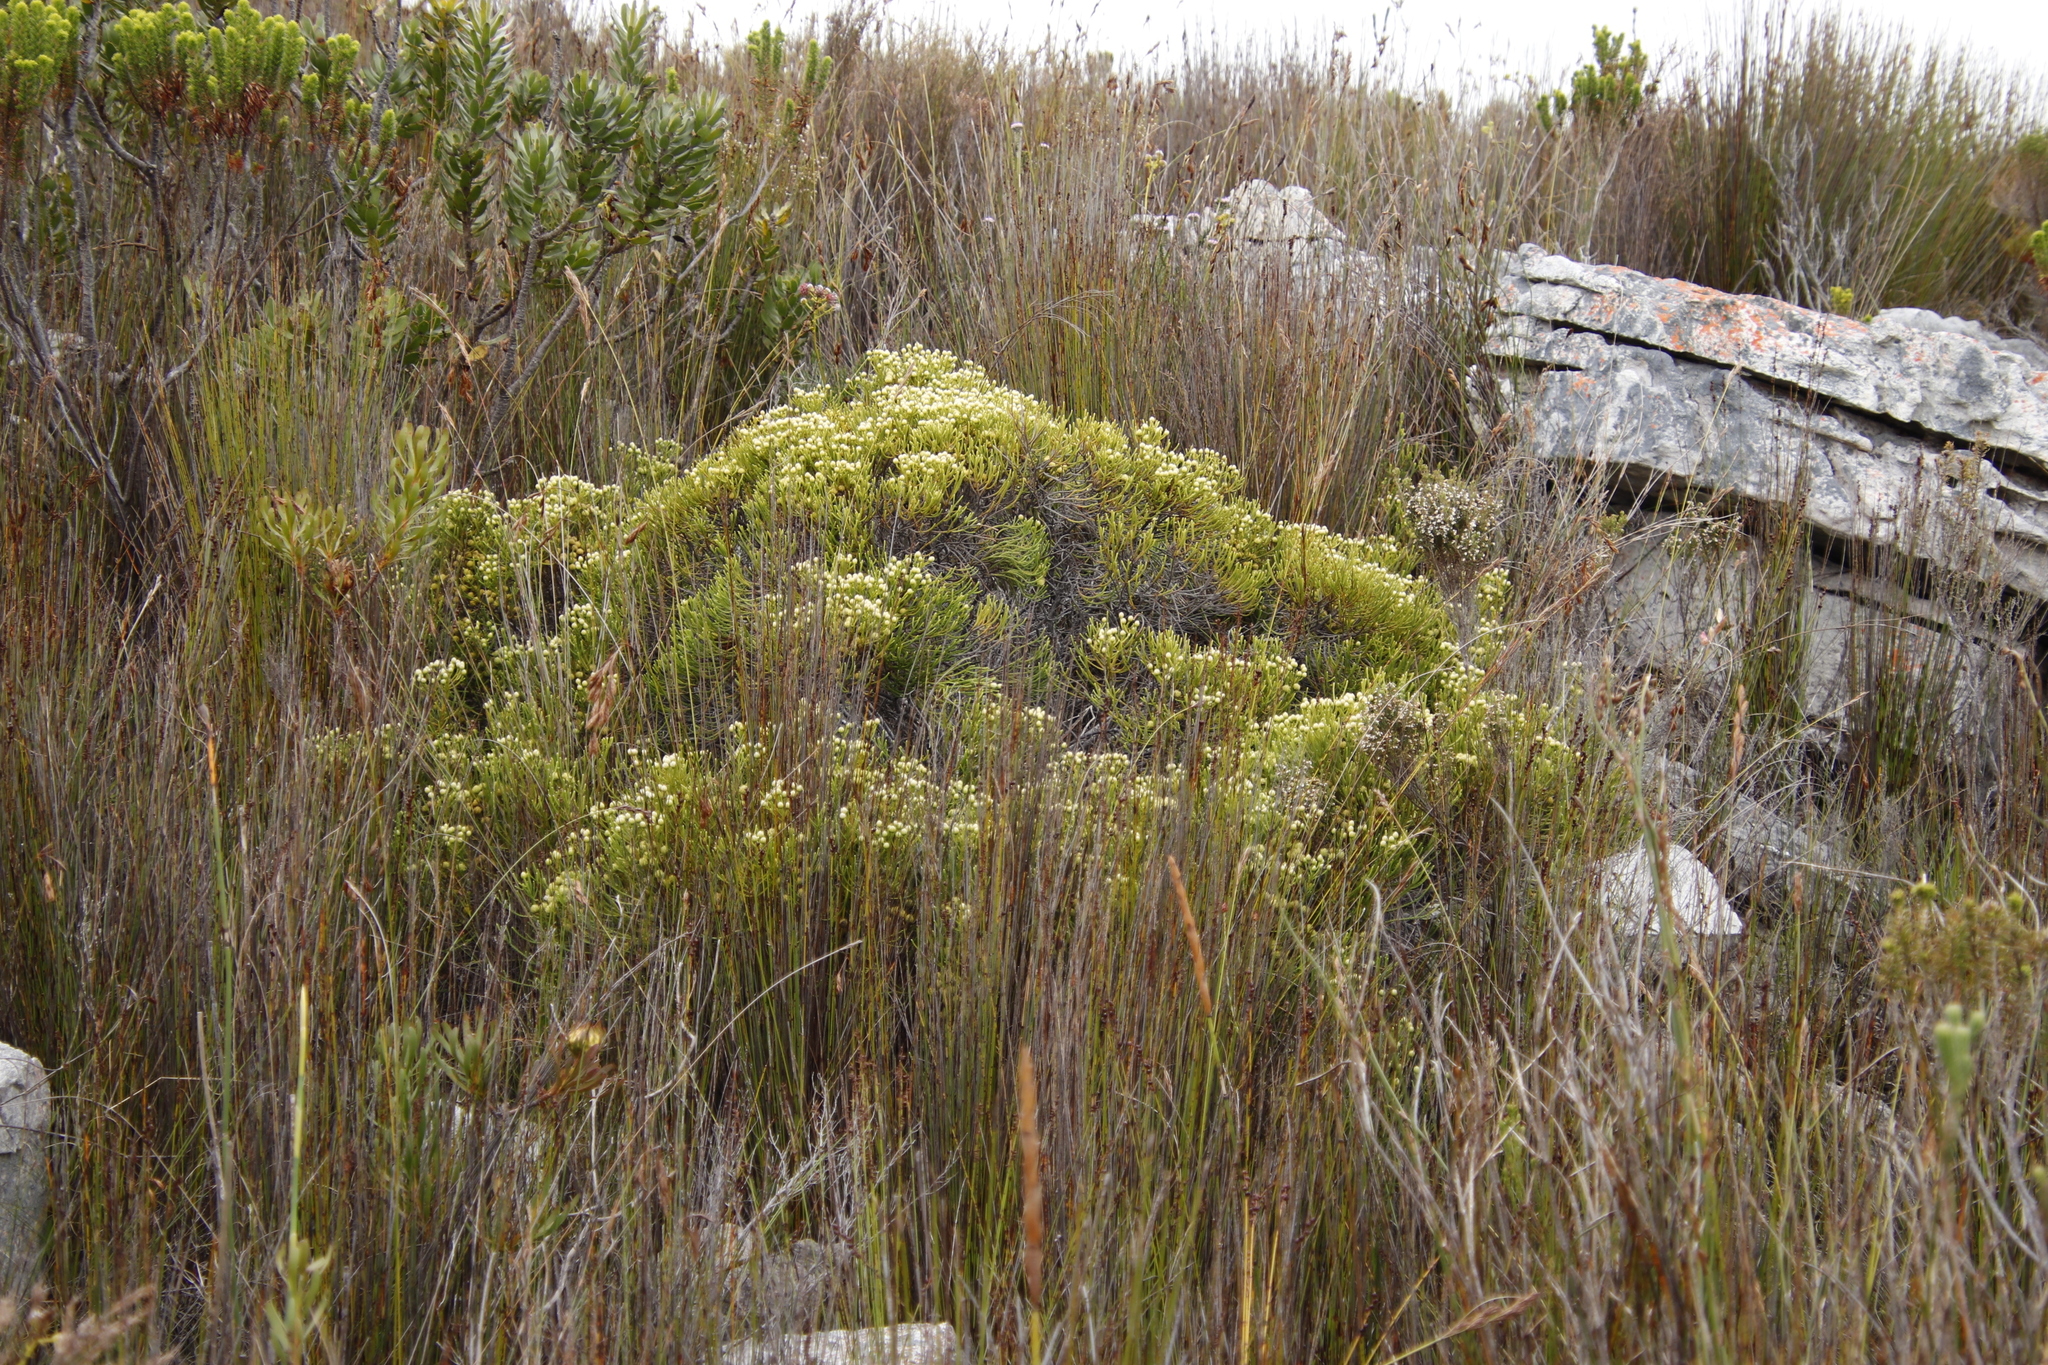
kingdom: Plantae
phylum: Tracheophyta
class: Magnoliopsida
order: Bruniales
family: Bruniaceae
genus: Brunia
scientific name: Brunia paleacea
